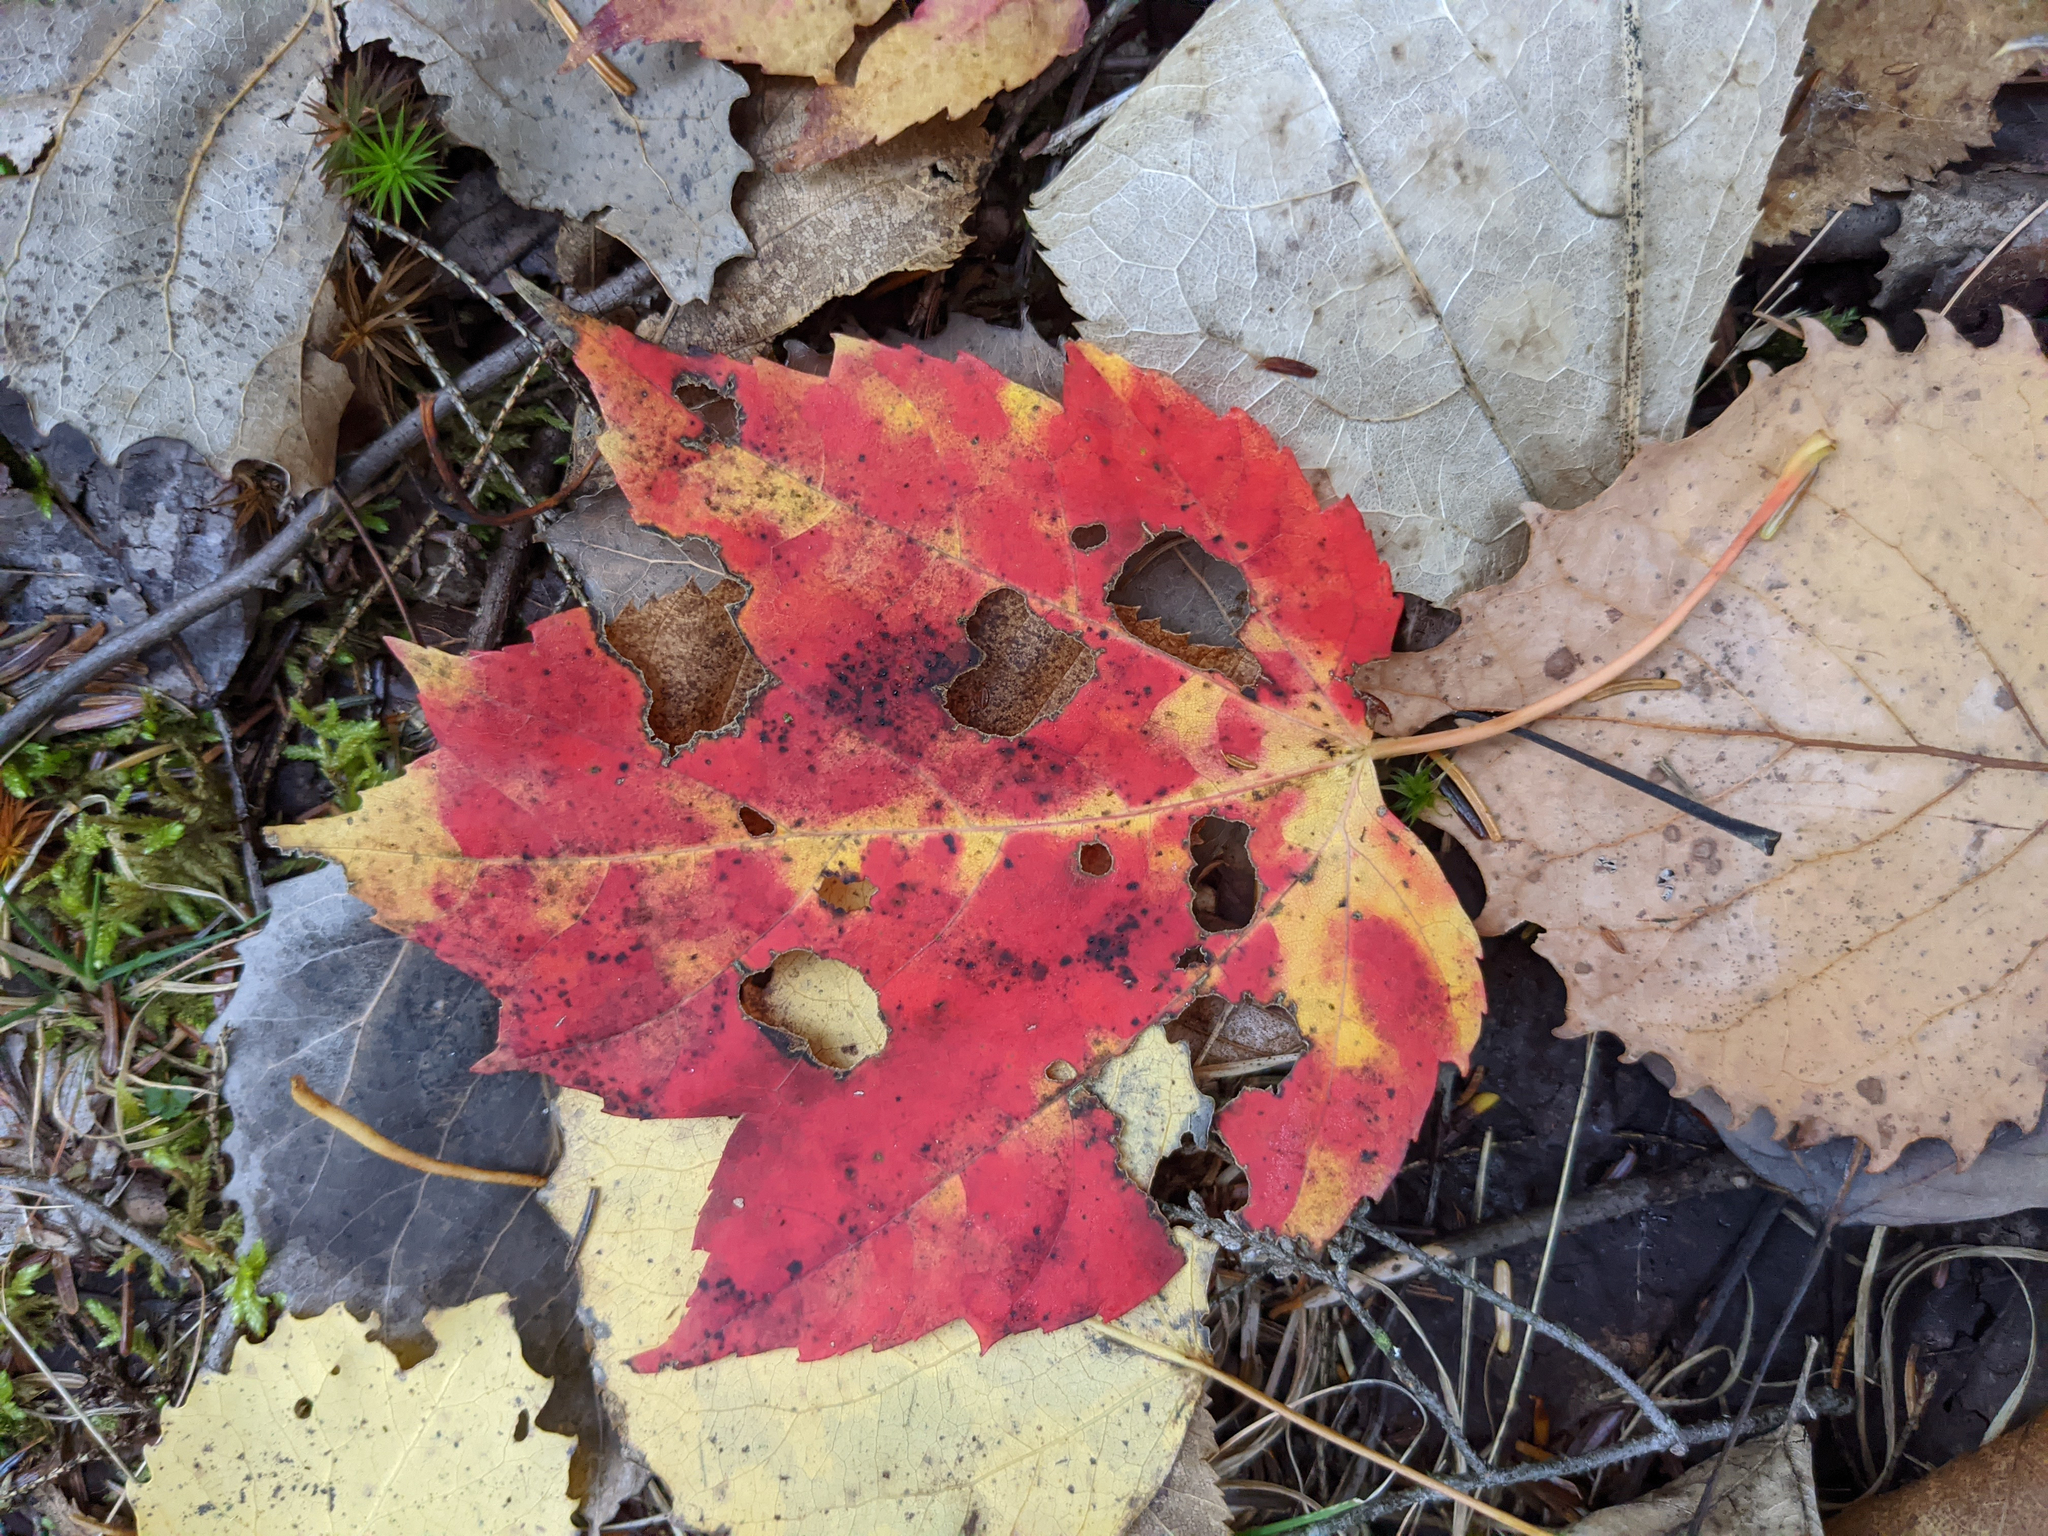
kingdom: Plantae
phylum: Tracheophyta
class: Magnoliopsida
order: Sapindales
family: Sapindaceae
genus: Acer
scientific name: Acer rubrum
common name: Red maple
